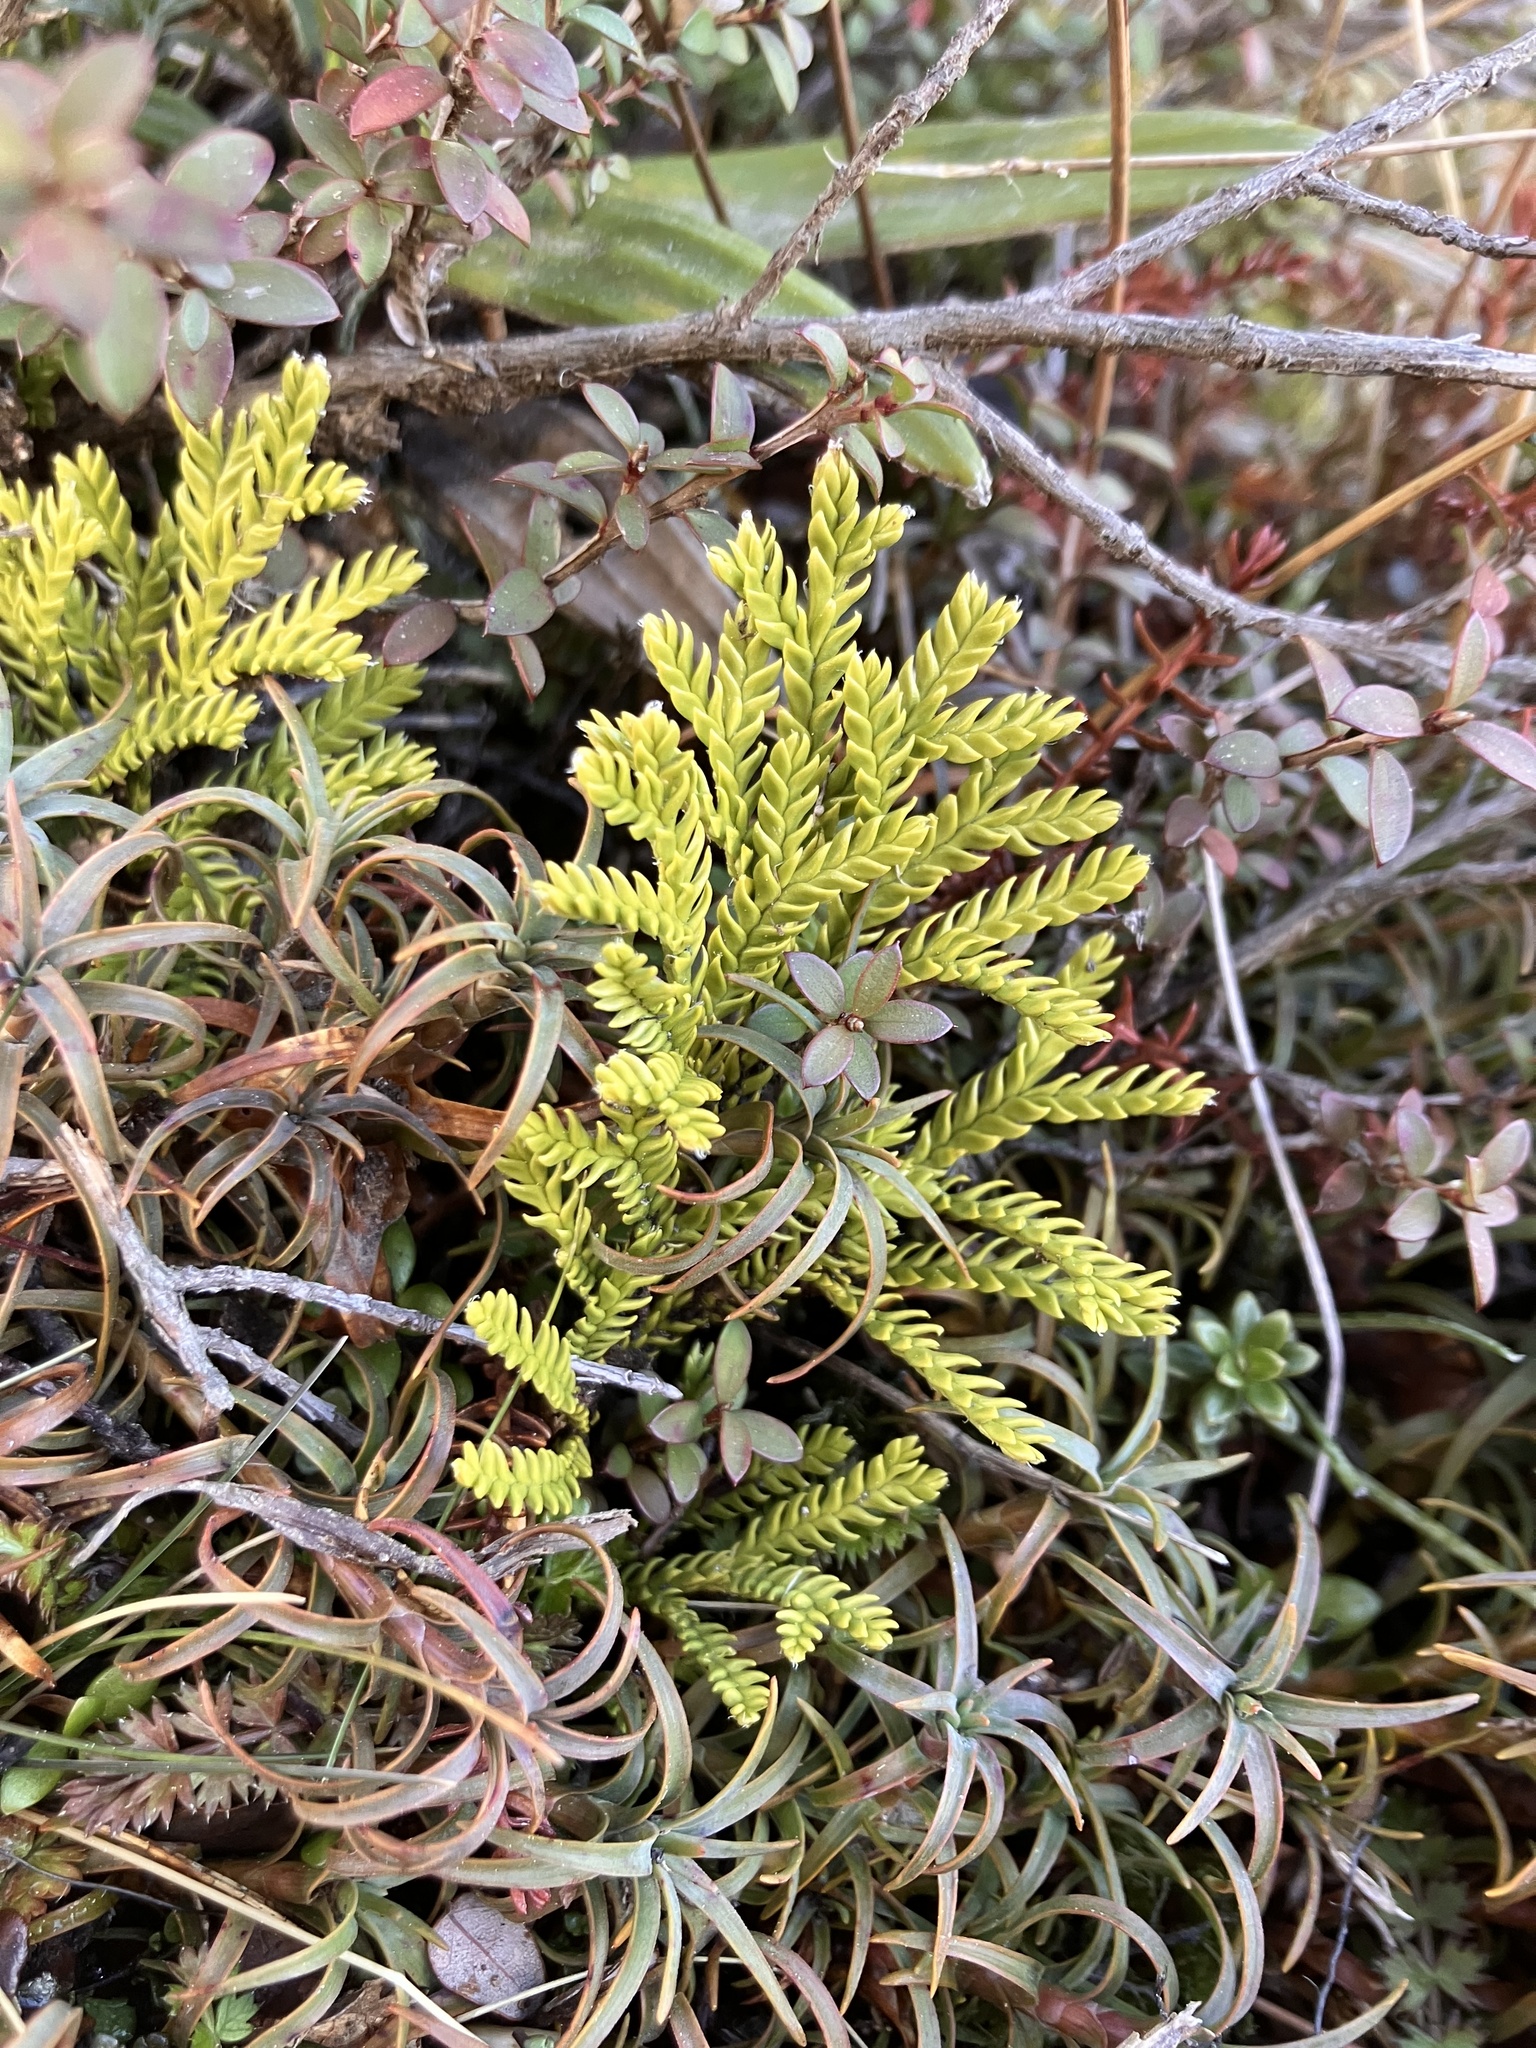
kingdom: Plantae
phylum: Tracheophyta
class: Lycopodiopsida
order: Lycopodiales
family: Lycopodiaceae
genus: Diphasium
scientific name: Diphasium scariosum
